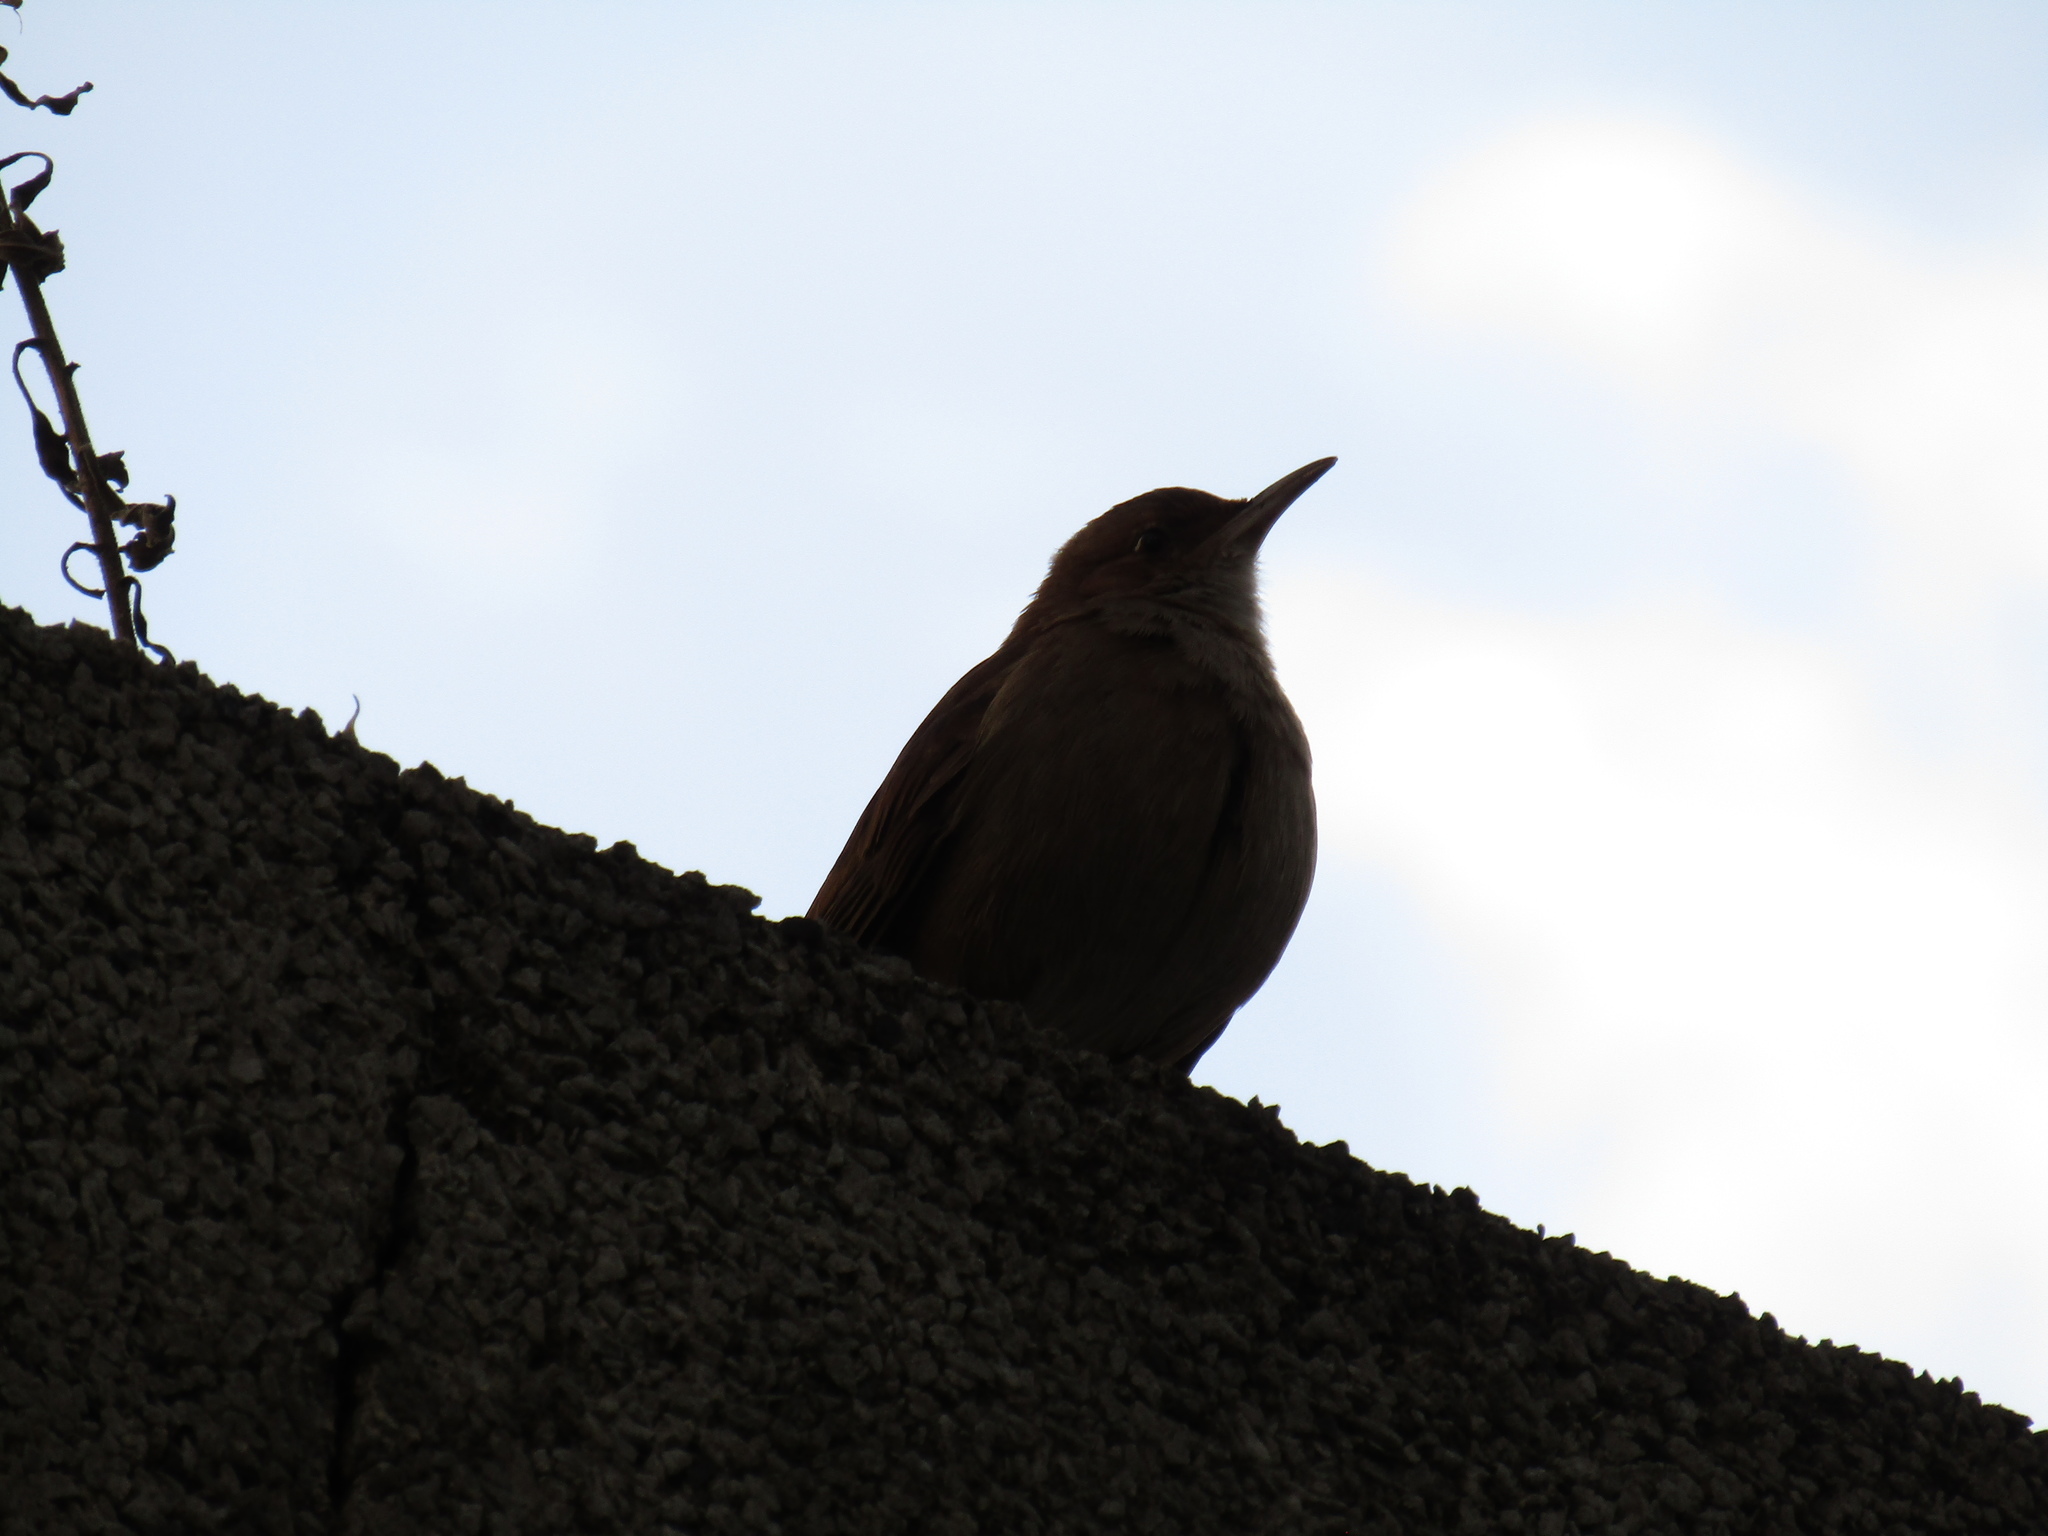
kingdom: Animalia
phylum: Chordata
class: Aves
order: Passeriformes
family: Furnariidae
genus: Furnarius
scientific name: Furnarius rufus
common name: Rufous hornero
